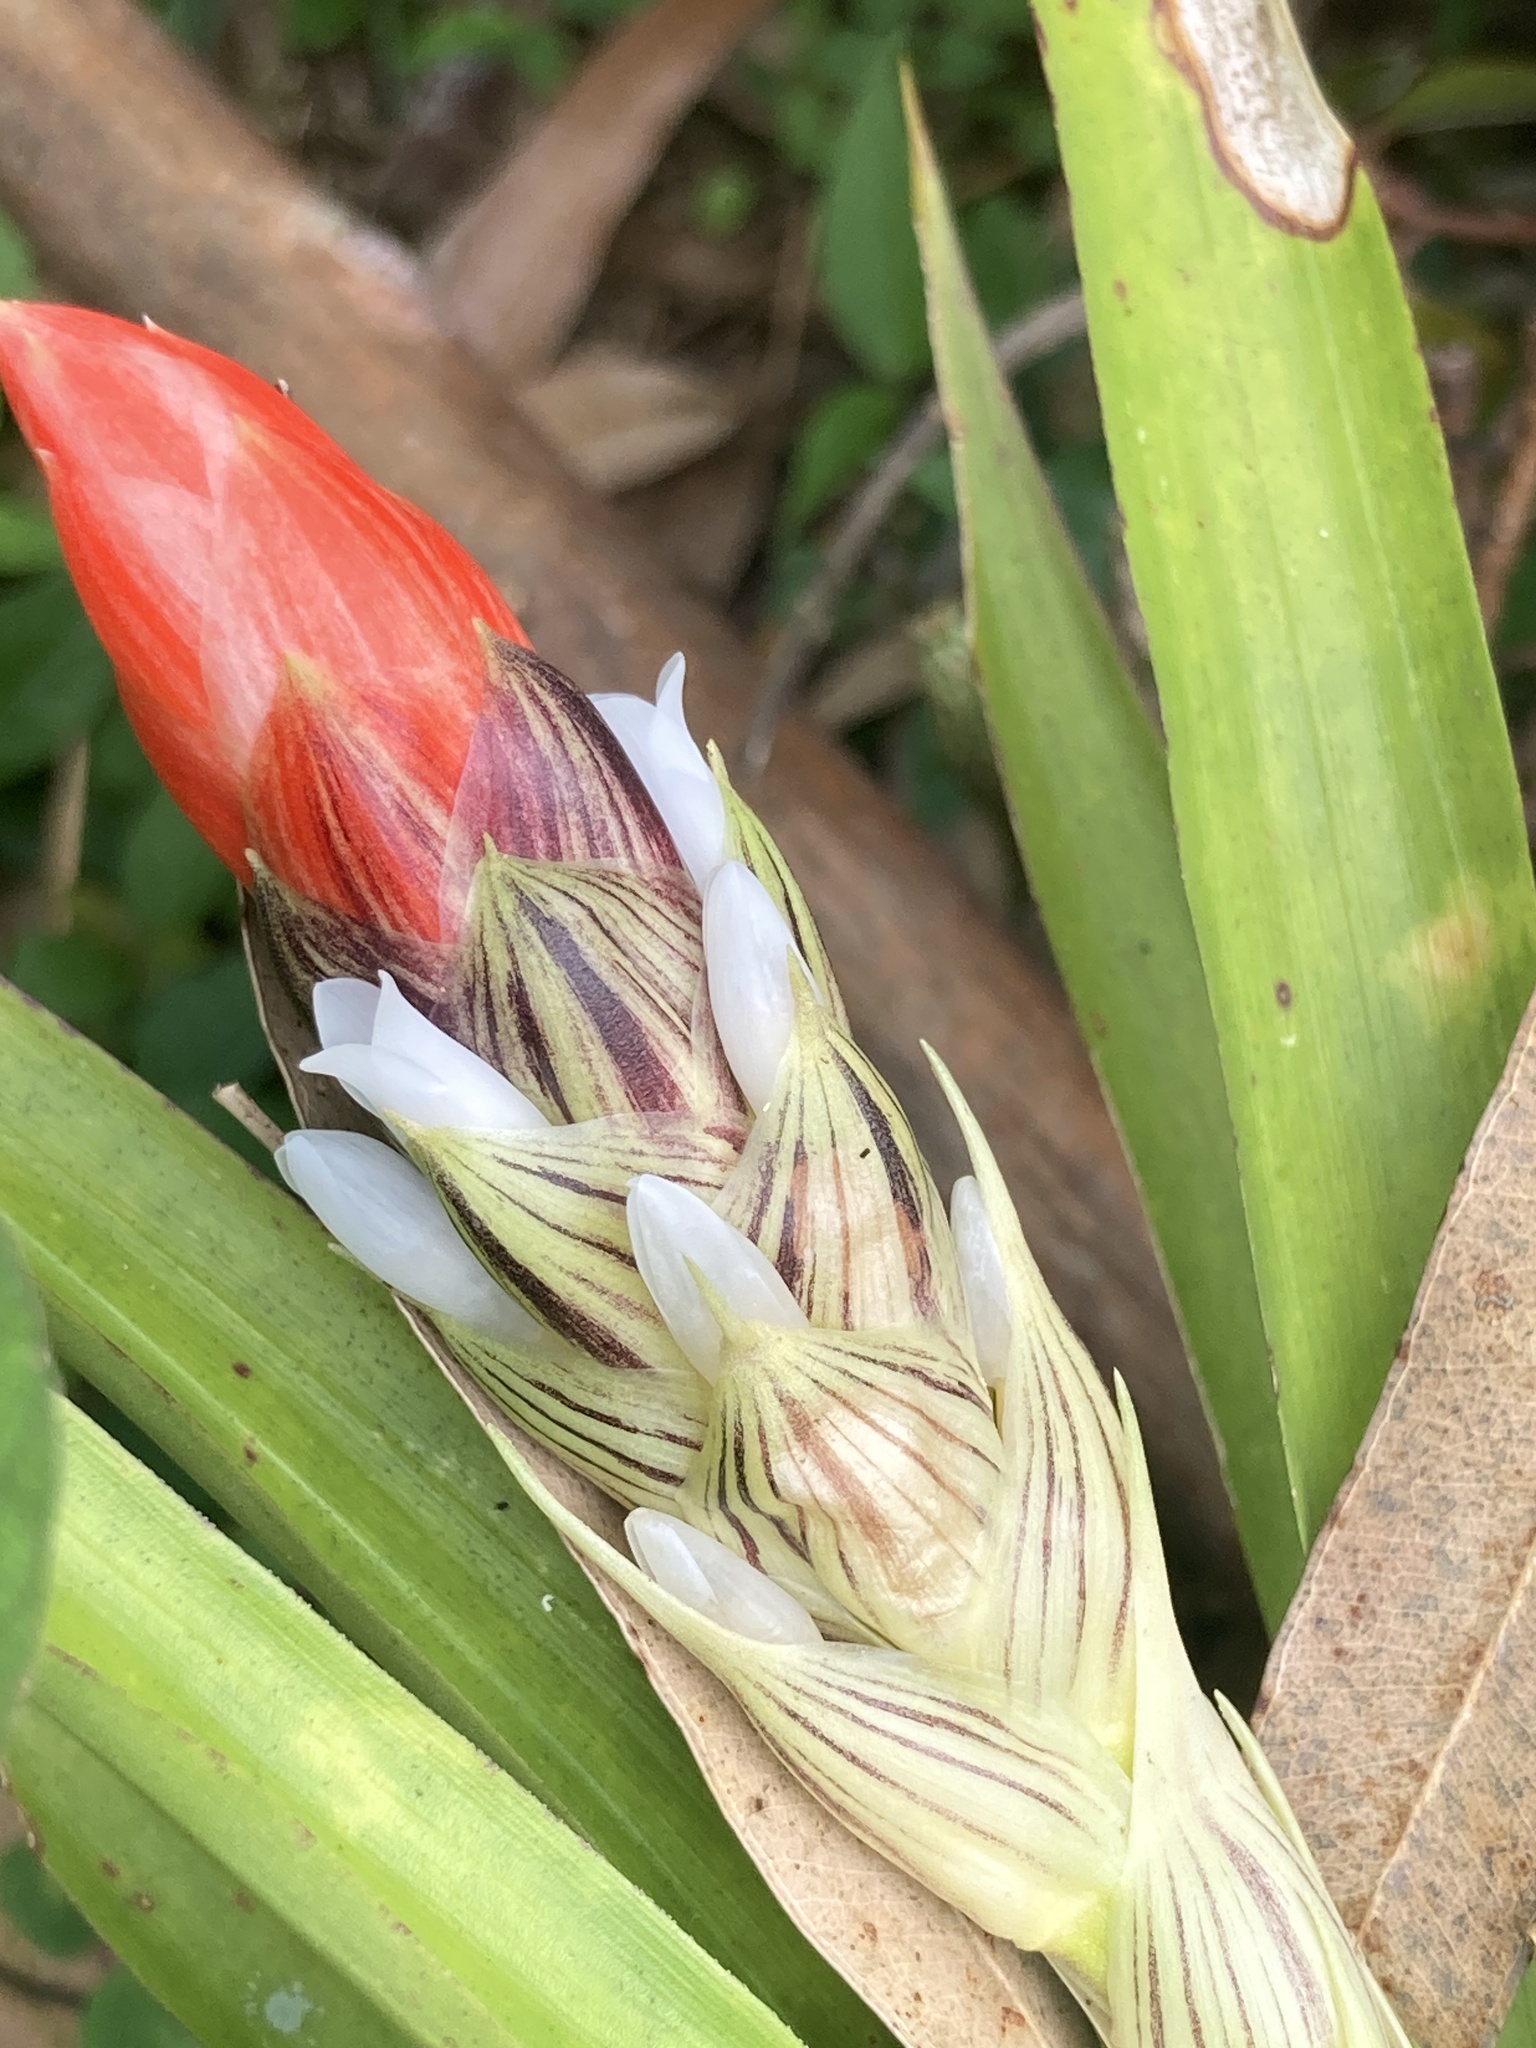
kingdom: Plantae
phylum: Tracheophyta
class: Liliopsida
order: Poales
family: Bromeliaceae
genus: Guzmania
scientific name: Guzmania monostachia
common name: West indian tufted airplant
